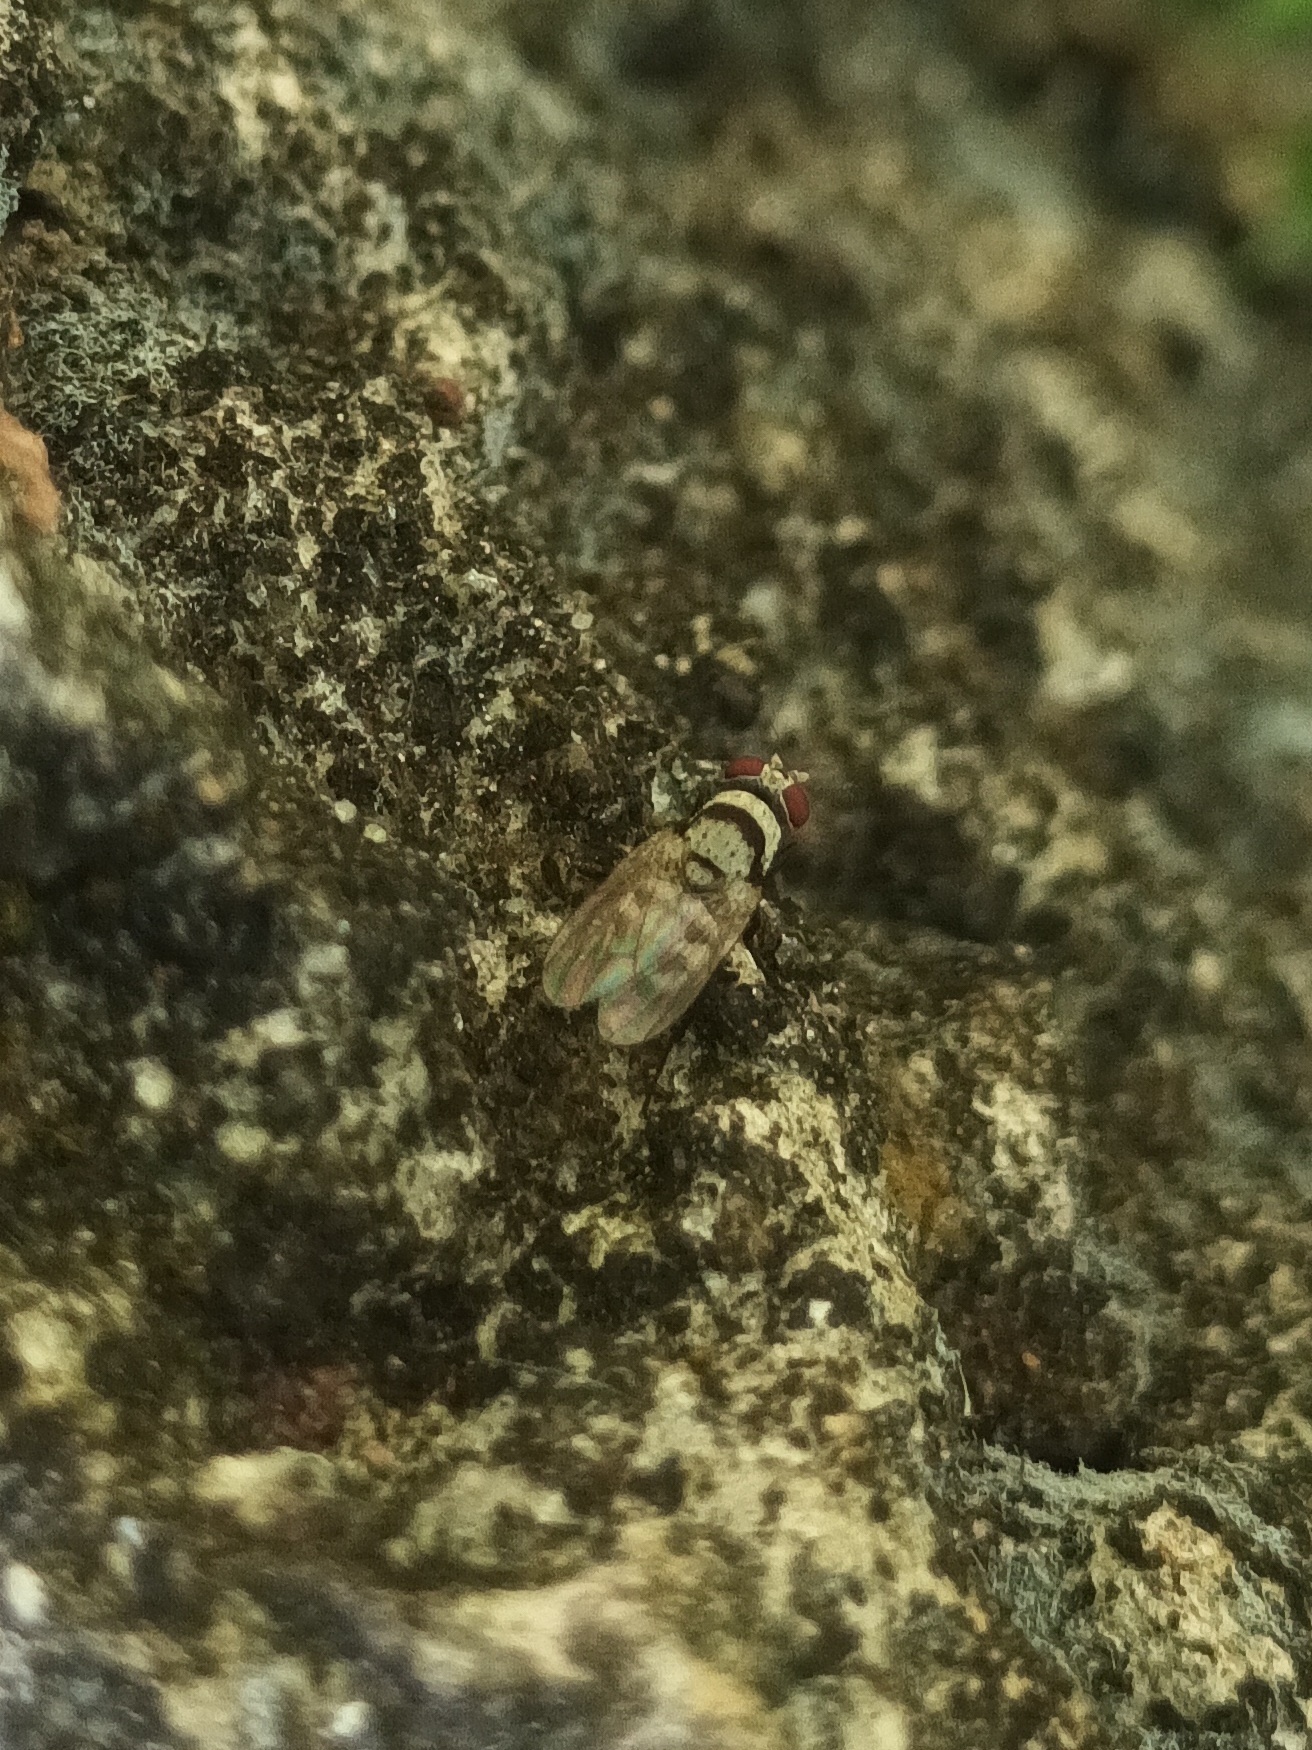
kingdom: Animalia
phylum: Arthropoda
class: Insecta
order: Diptera
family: Anthomyiidae
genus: Anthomyia
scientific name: Anthomyia illocata
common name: Fly
